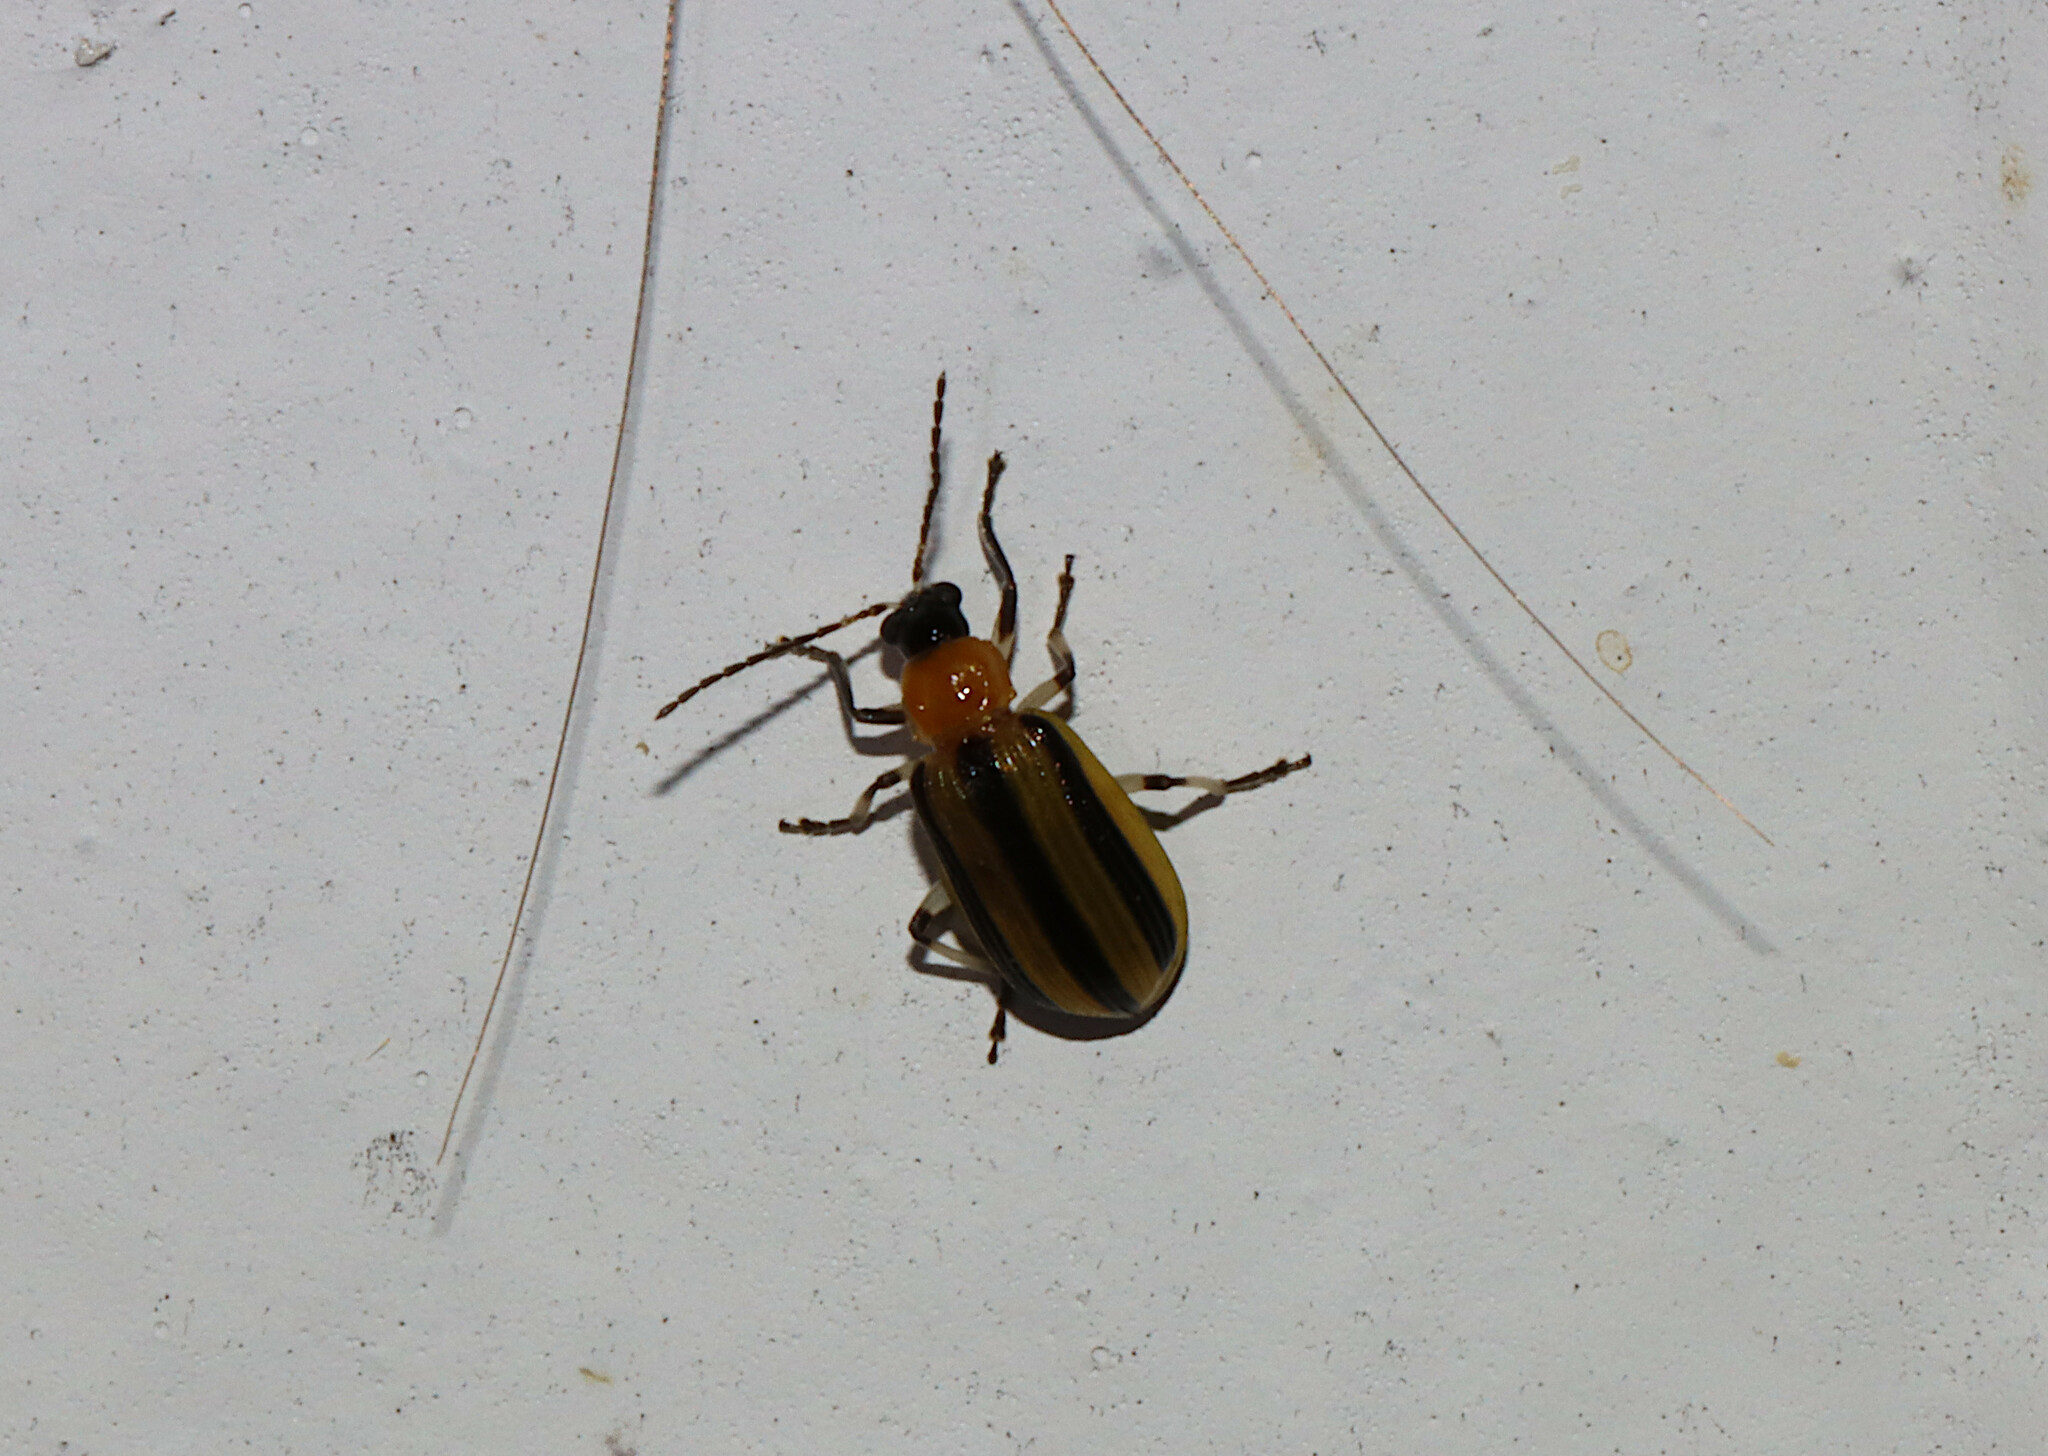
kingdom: Animalia
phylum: Arthropoda
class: Insecta
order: Coleoptera
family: Chrysomelidae
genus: Acalymma
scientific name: Acalymma vittatum
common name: Striped cucumber beetle
